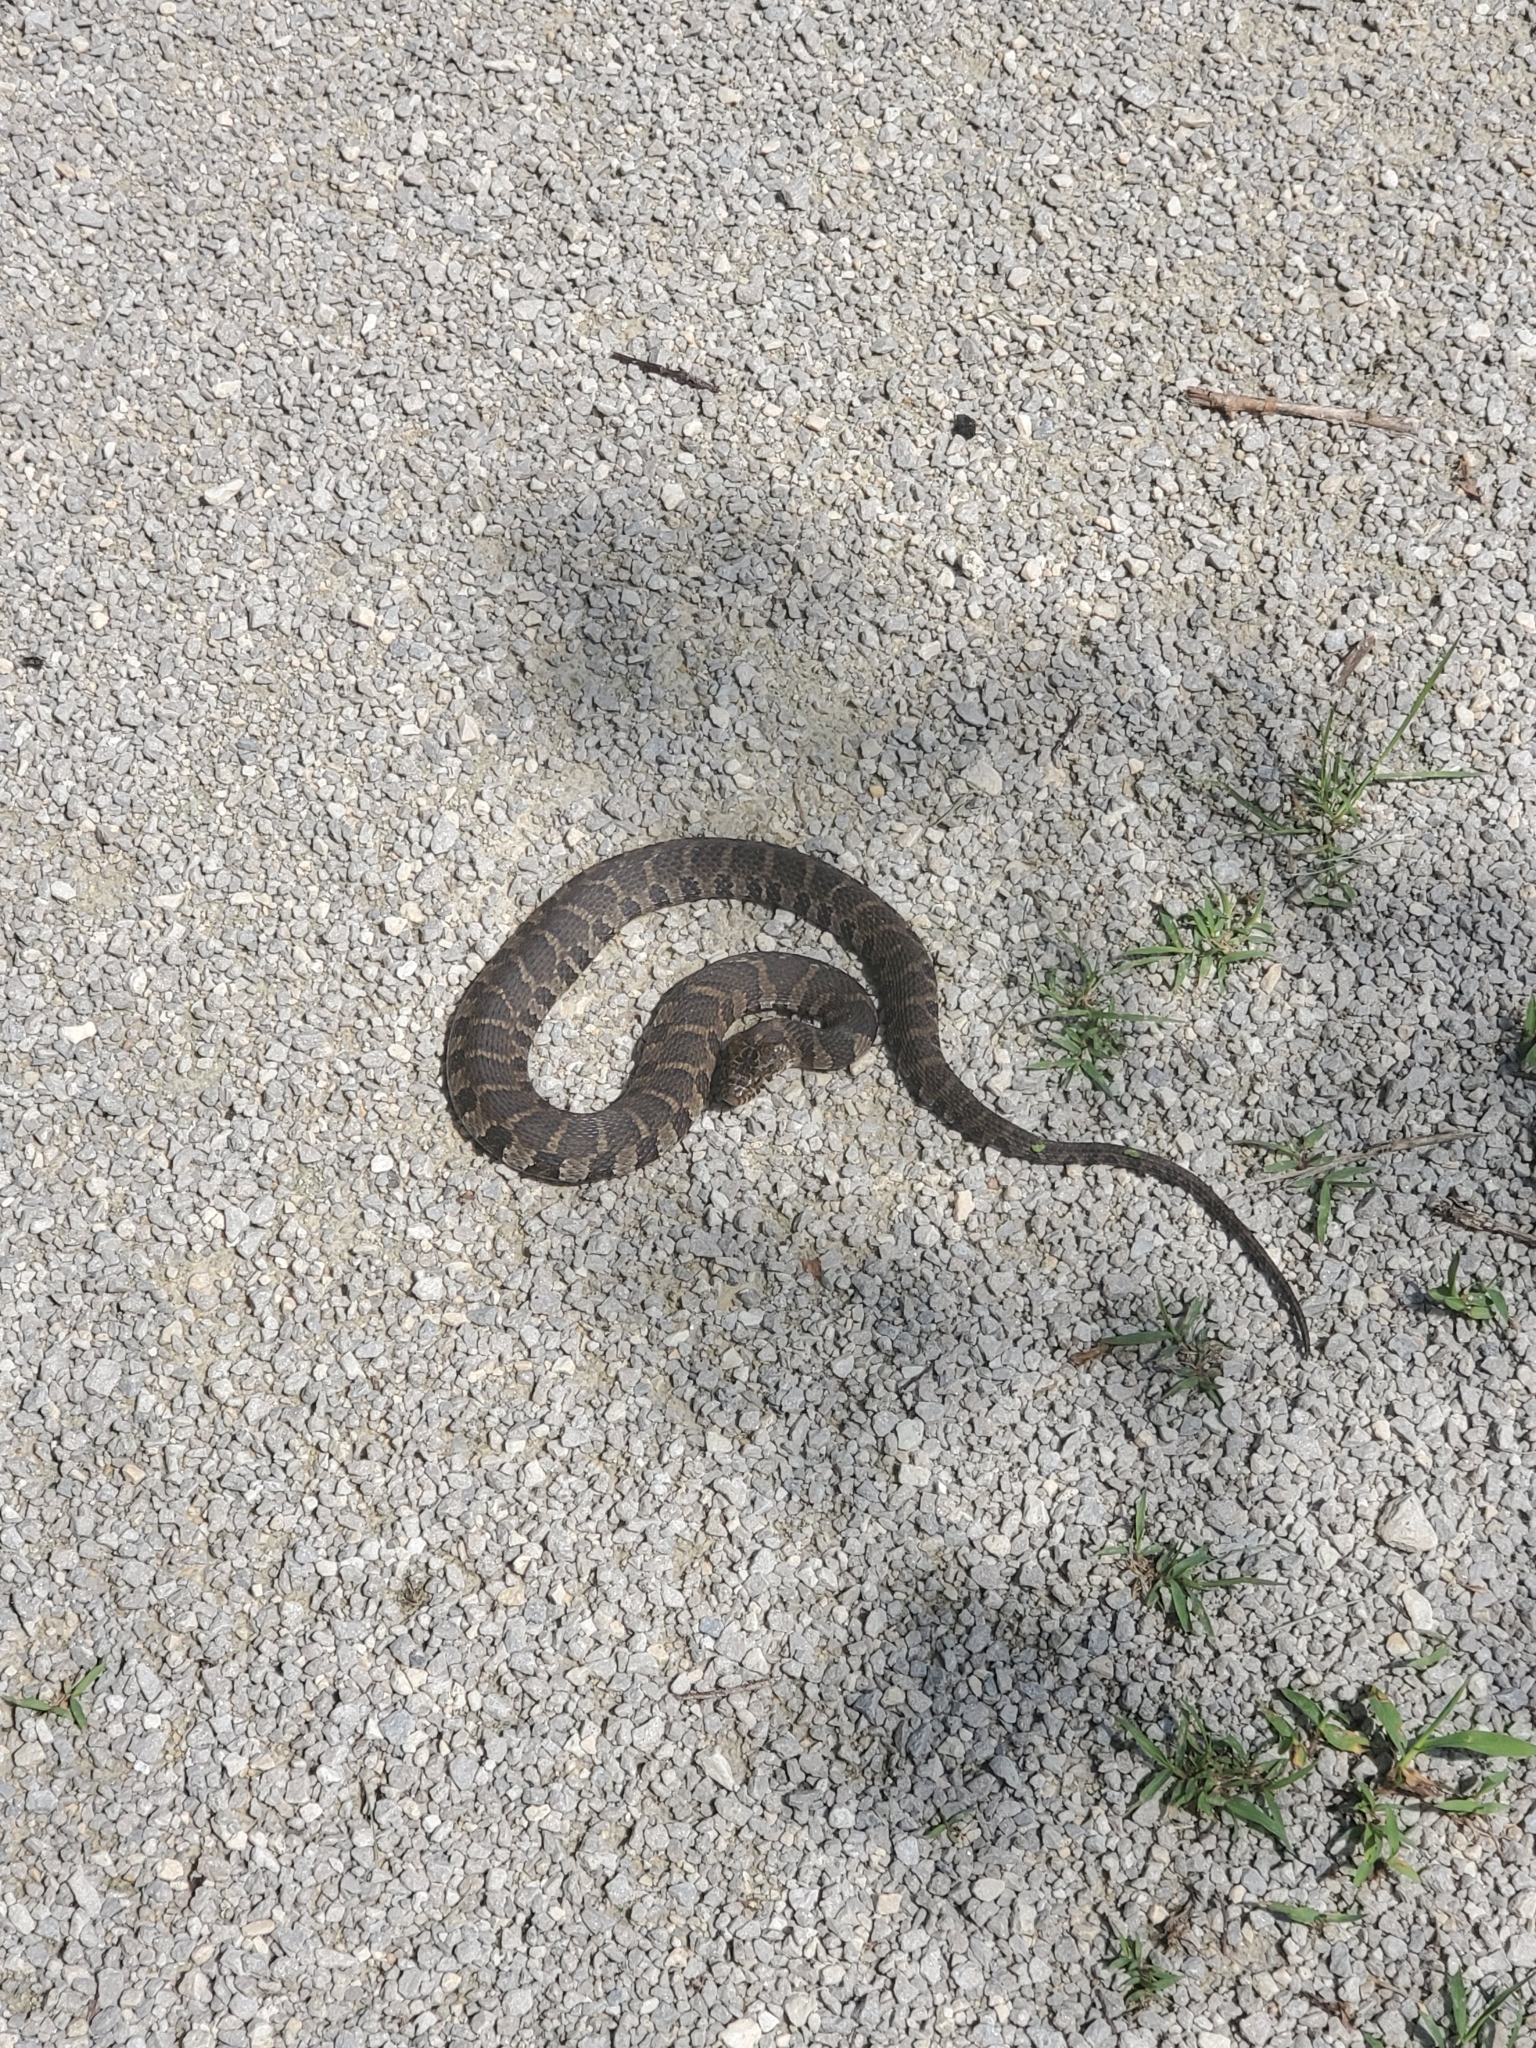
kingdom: Animalia
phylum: Chordata
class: Squamata
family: Colubridae
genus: Nerodia
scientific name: Nerodia sipedon
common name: Northern water snake
